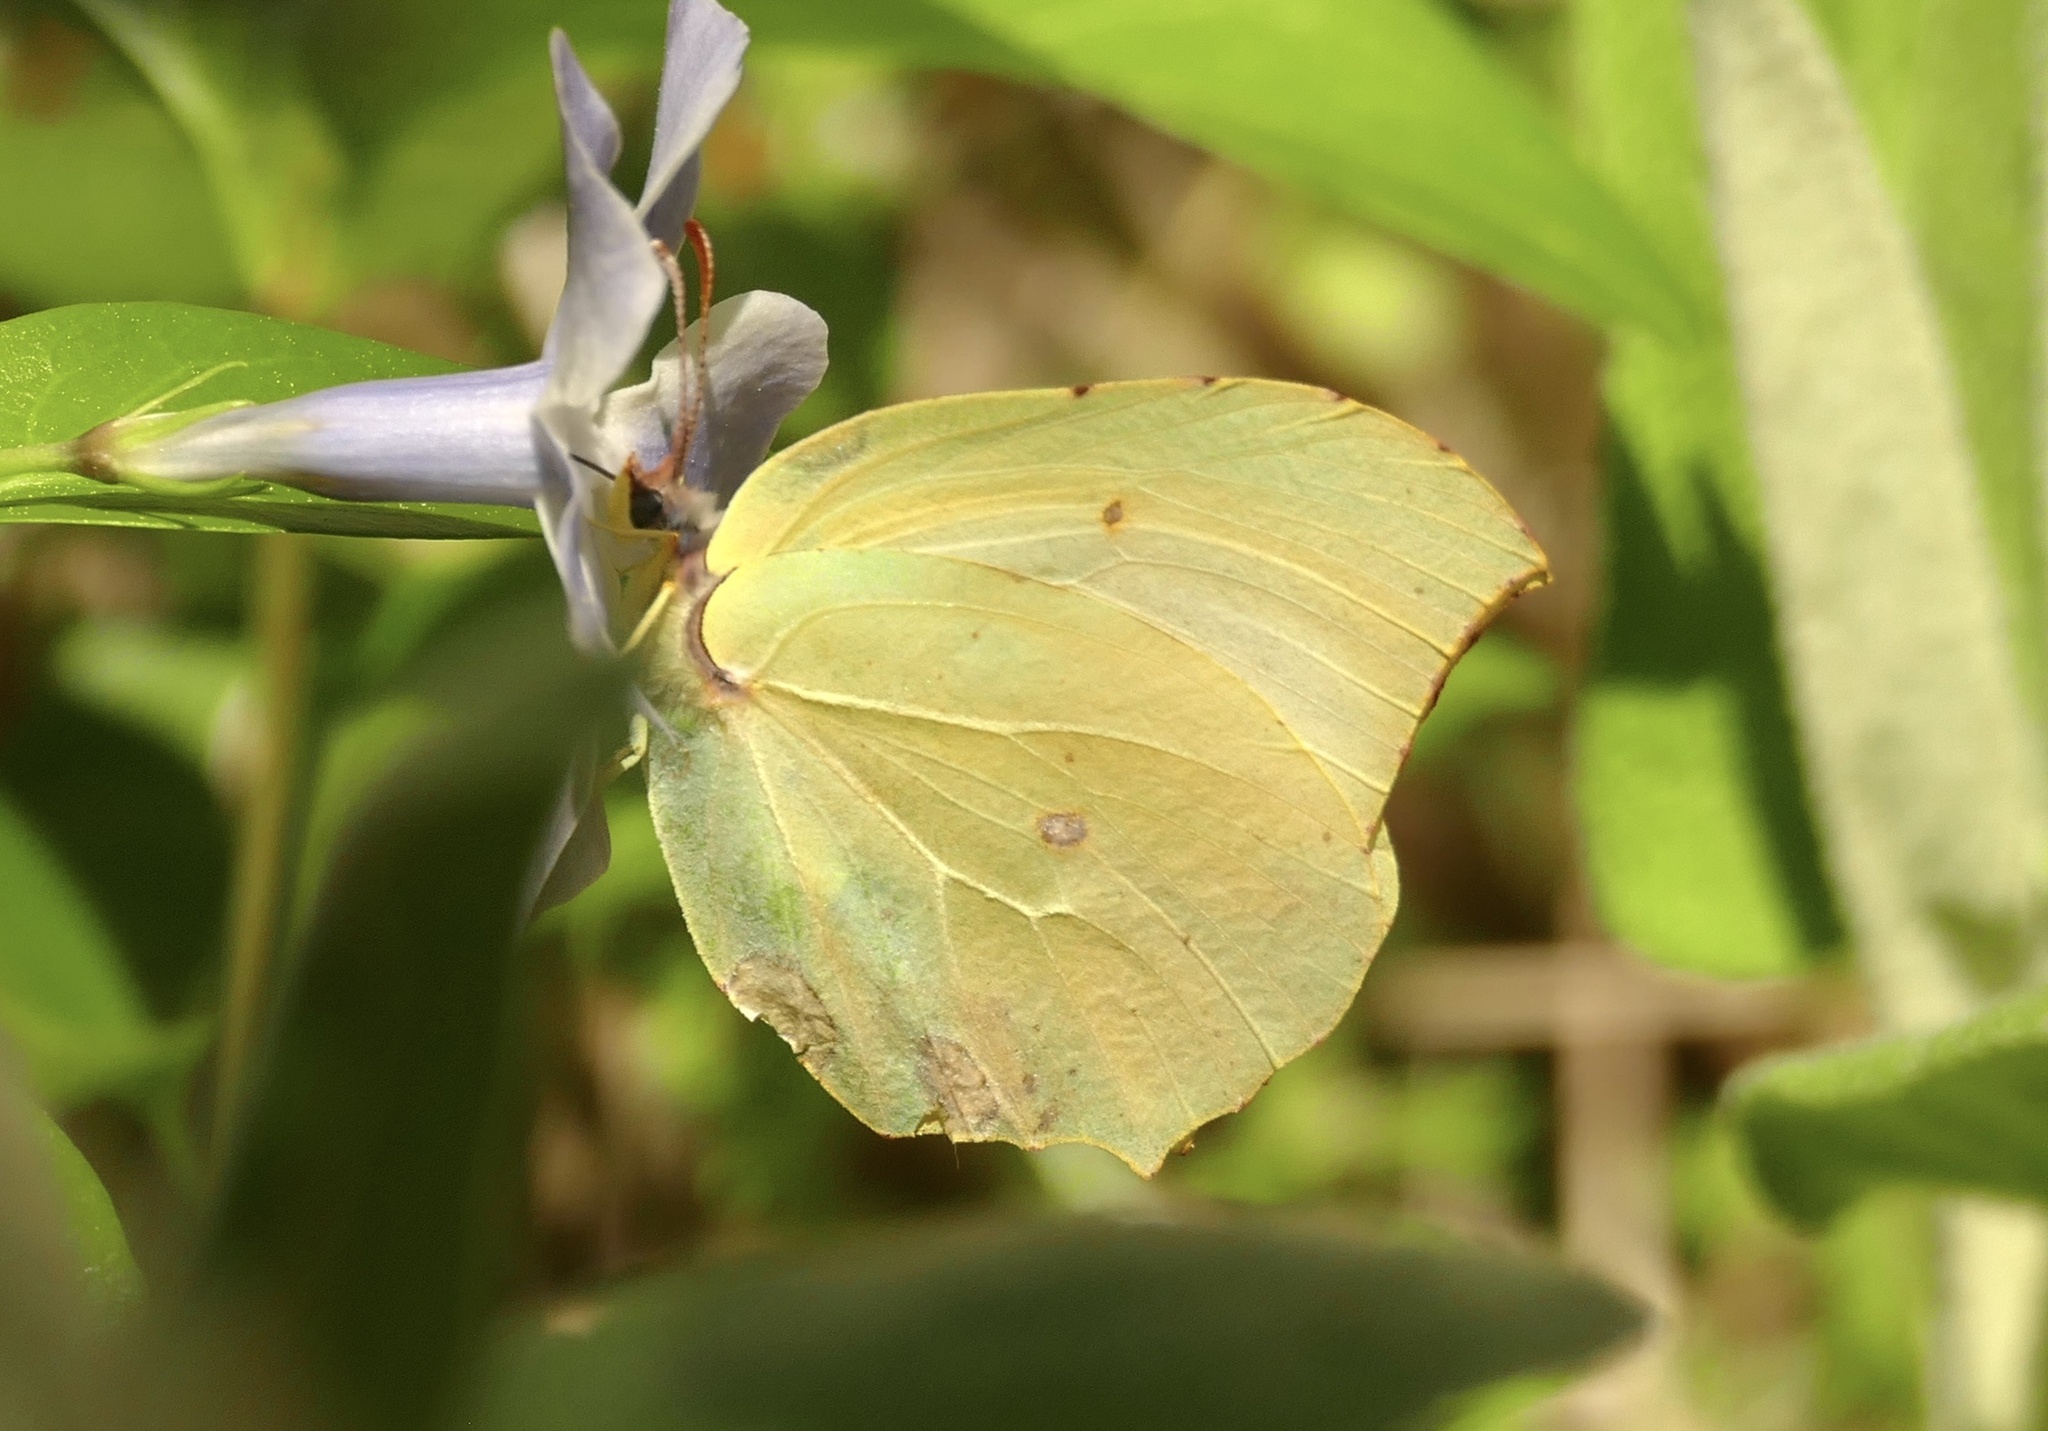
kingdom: Animalia
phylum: Arthropoda
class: Insecta
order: Lepidoptera
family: Pieridae
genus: Gonepteryx
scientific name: Gonepteryx cleopatra
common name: Cleopatra
